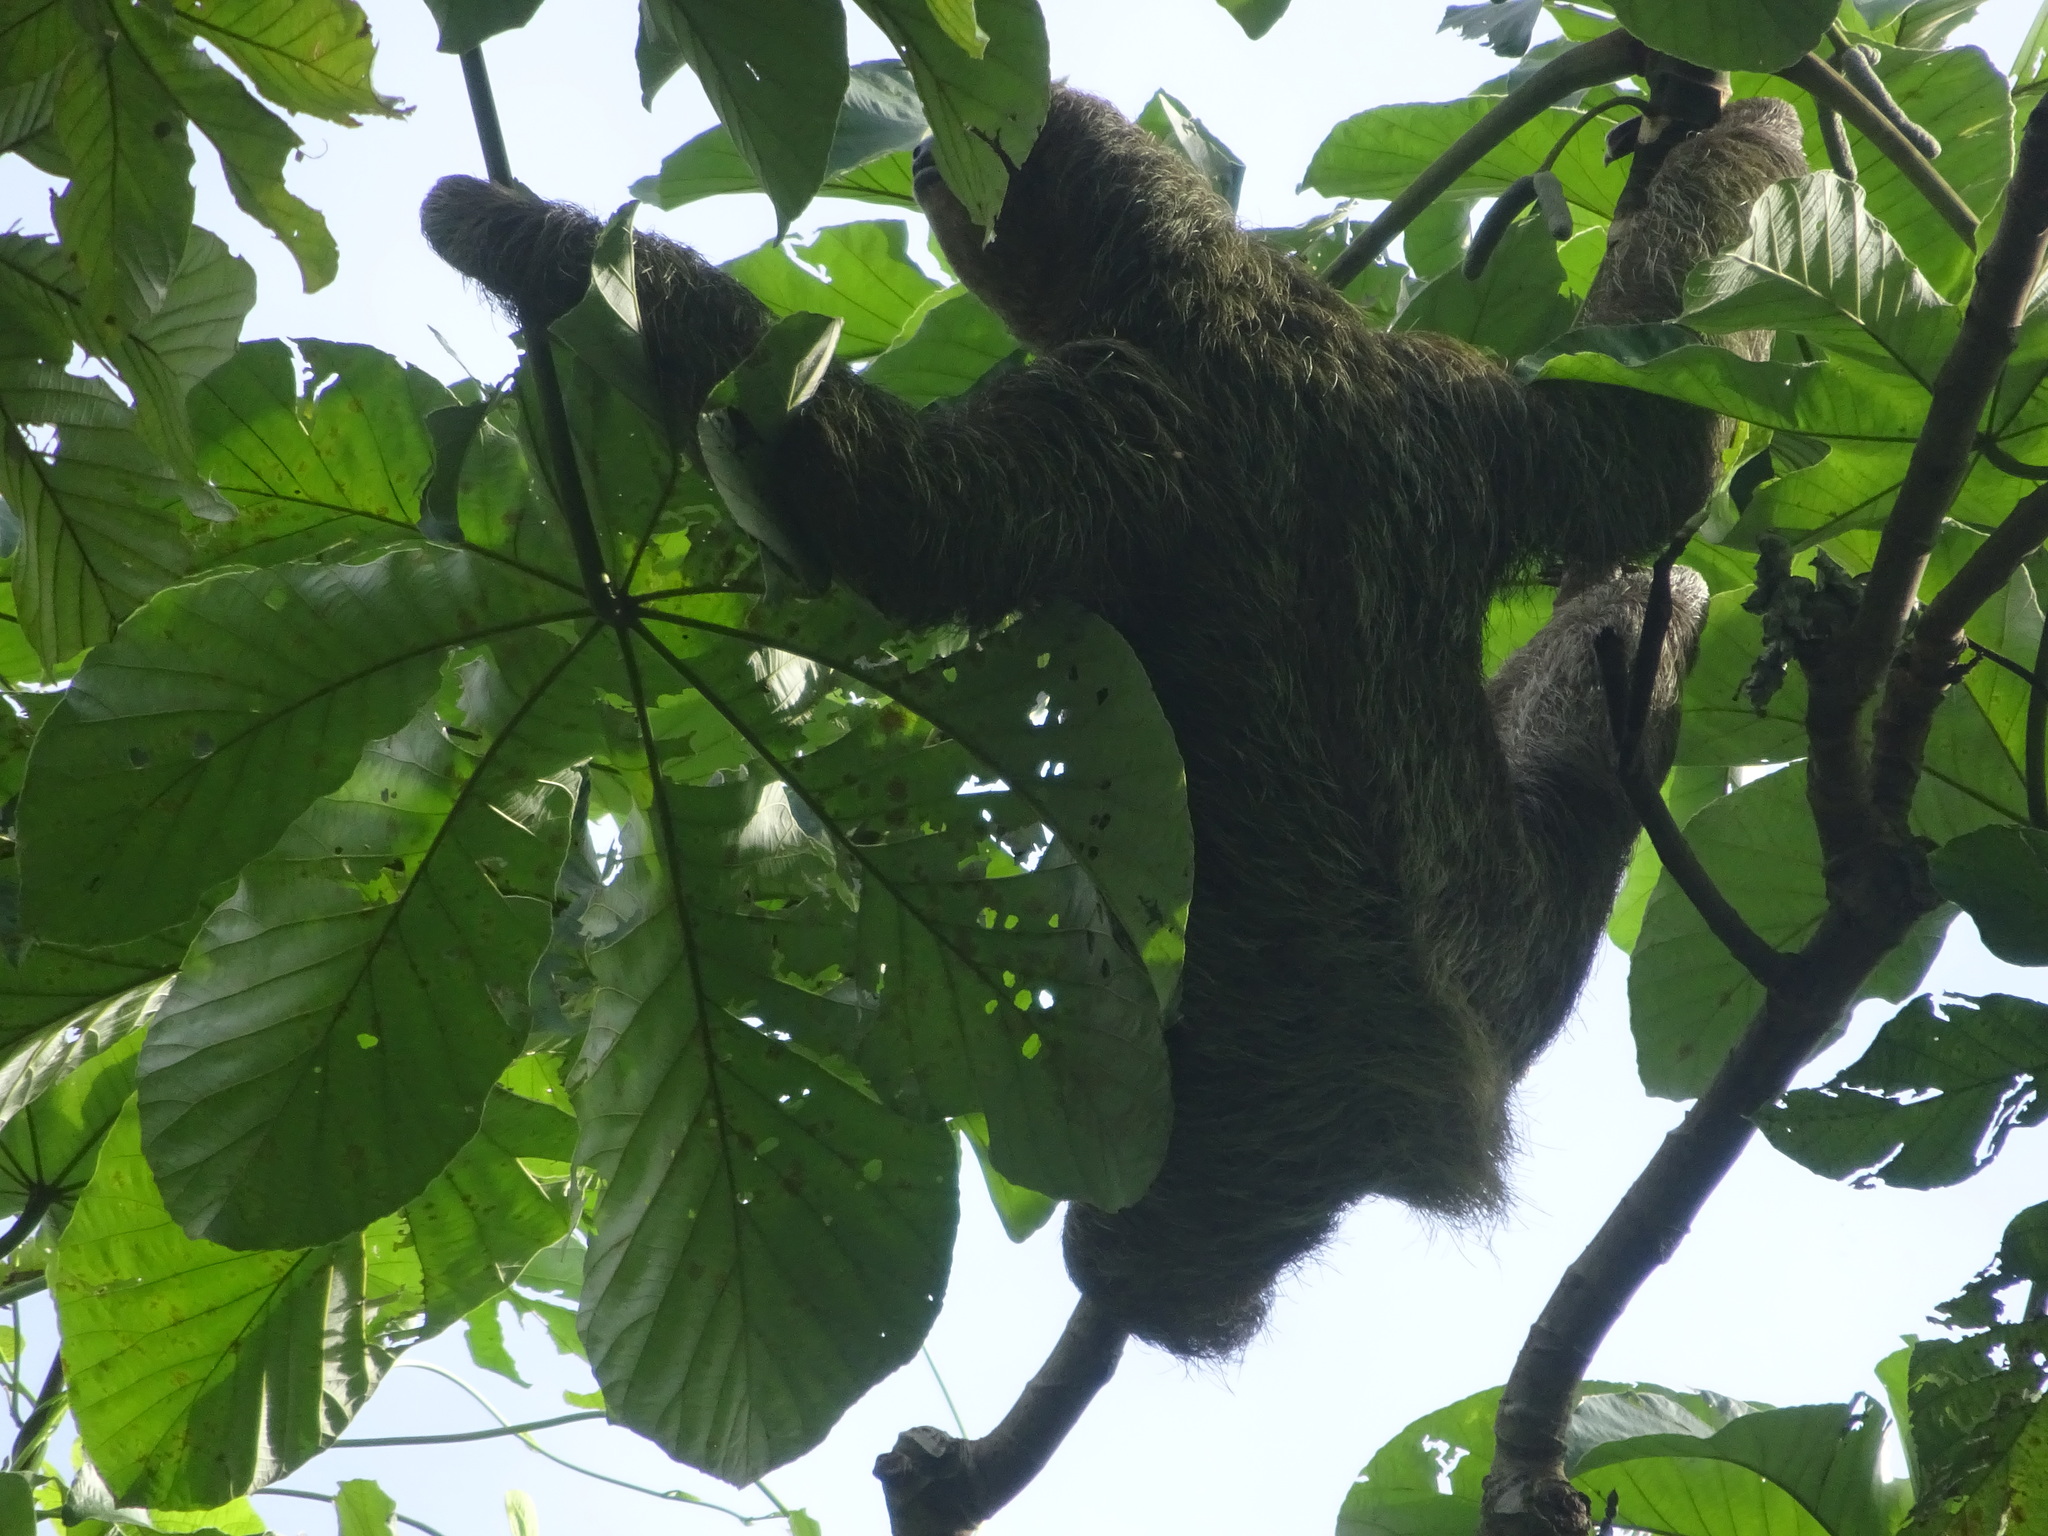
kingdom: Animalia
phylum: Chordata
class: Mammalia
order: Pilosa
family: Bradypodidae
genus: Bradypus
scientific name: Bradypus variegatus
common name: Brown-throated three-toed sloth
